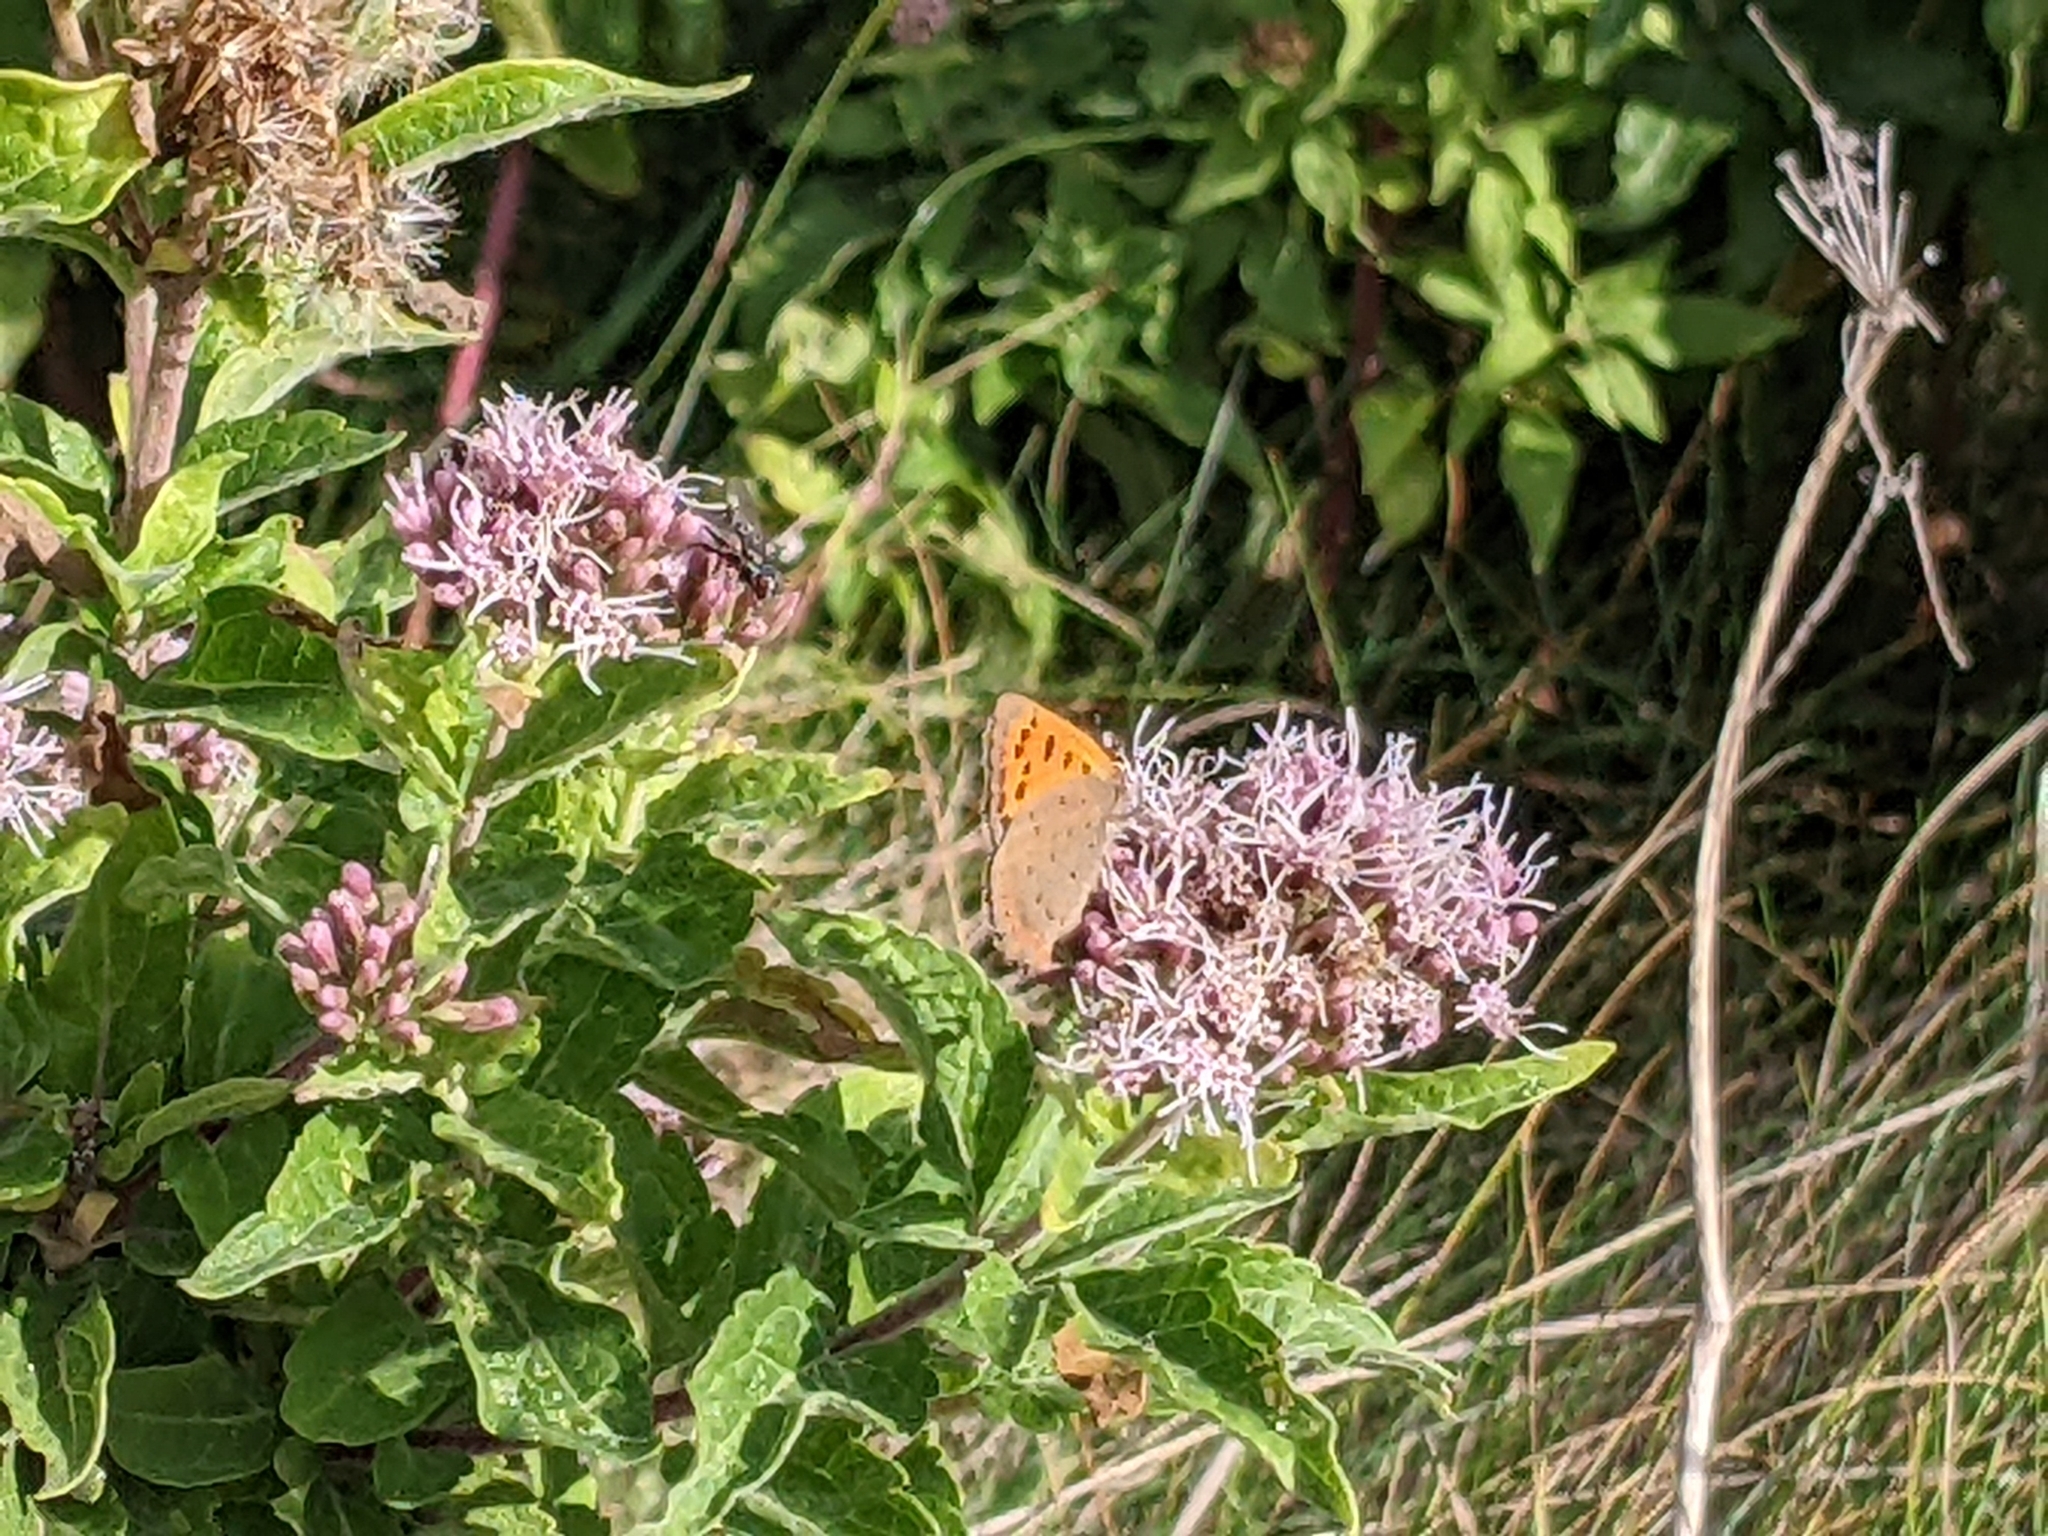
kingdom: Animalia
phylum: Arthropoda
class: Insecta
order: Lepidoptera
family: Lycaenidae
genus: Lycaena
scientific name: Lycaena phlaeas
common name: Small copper
